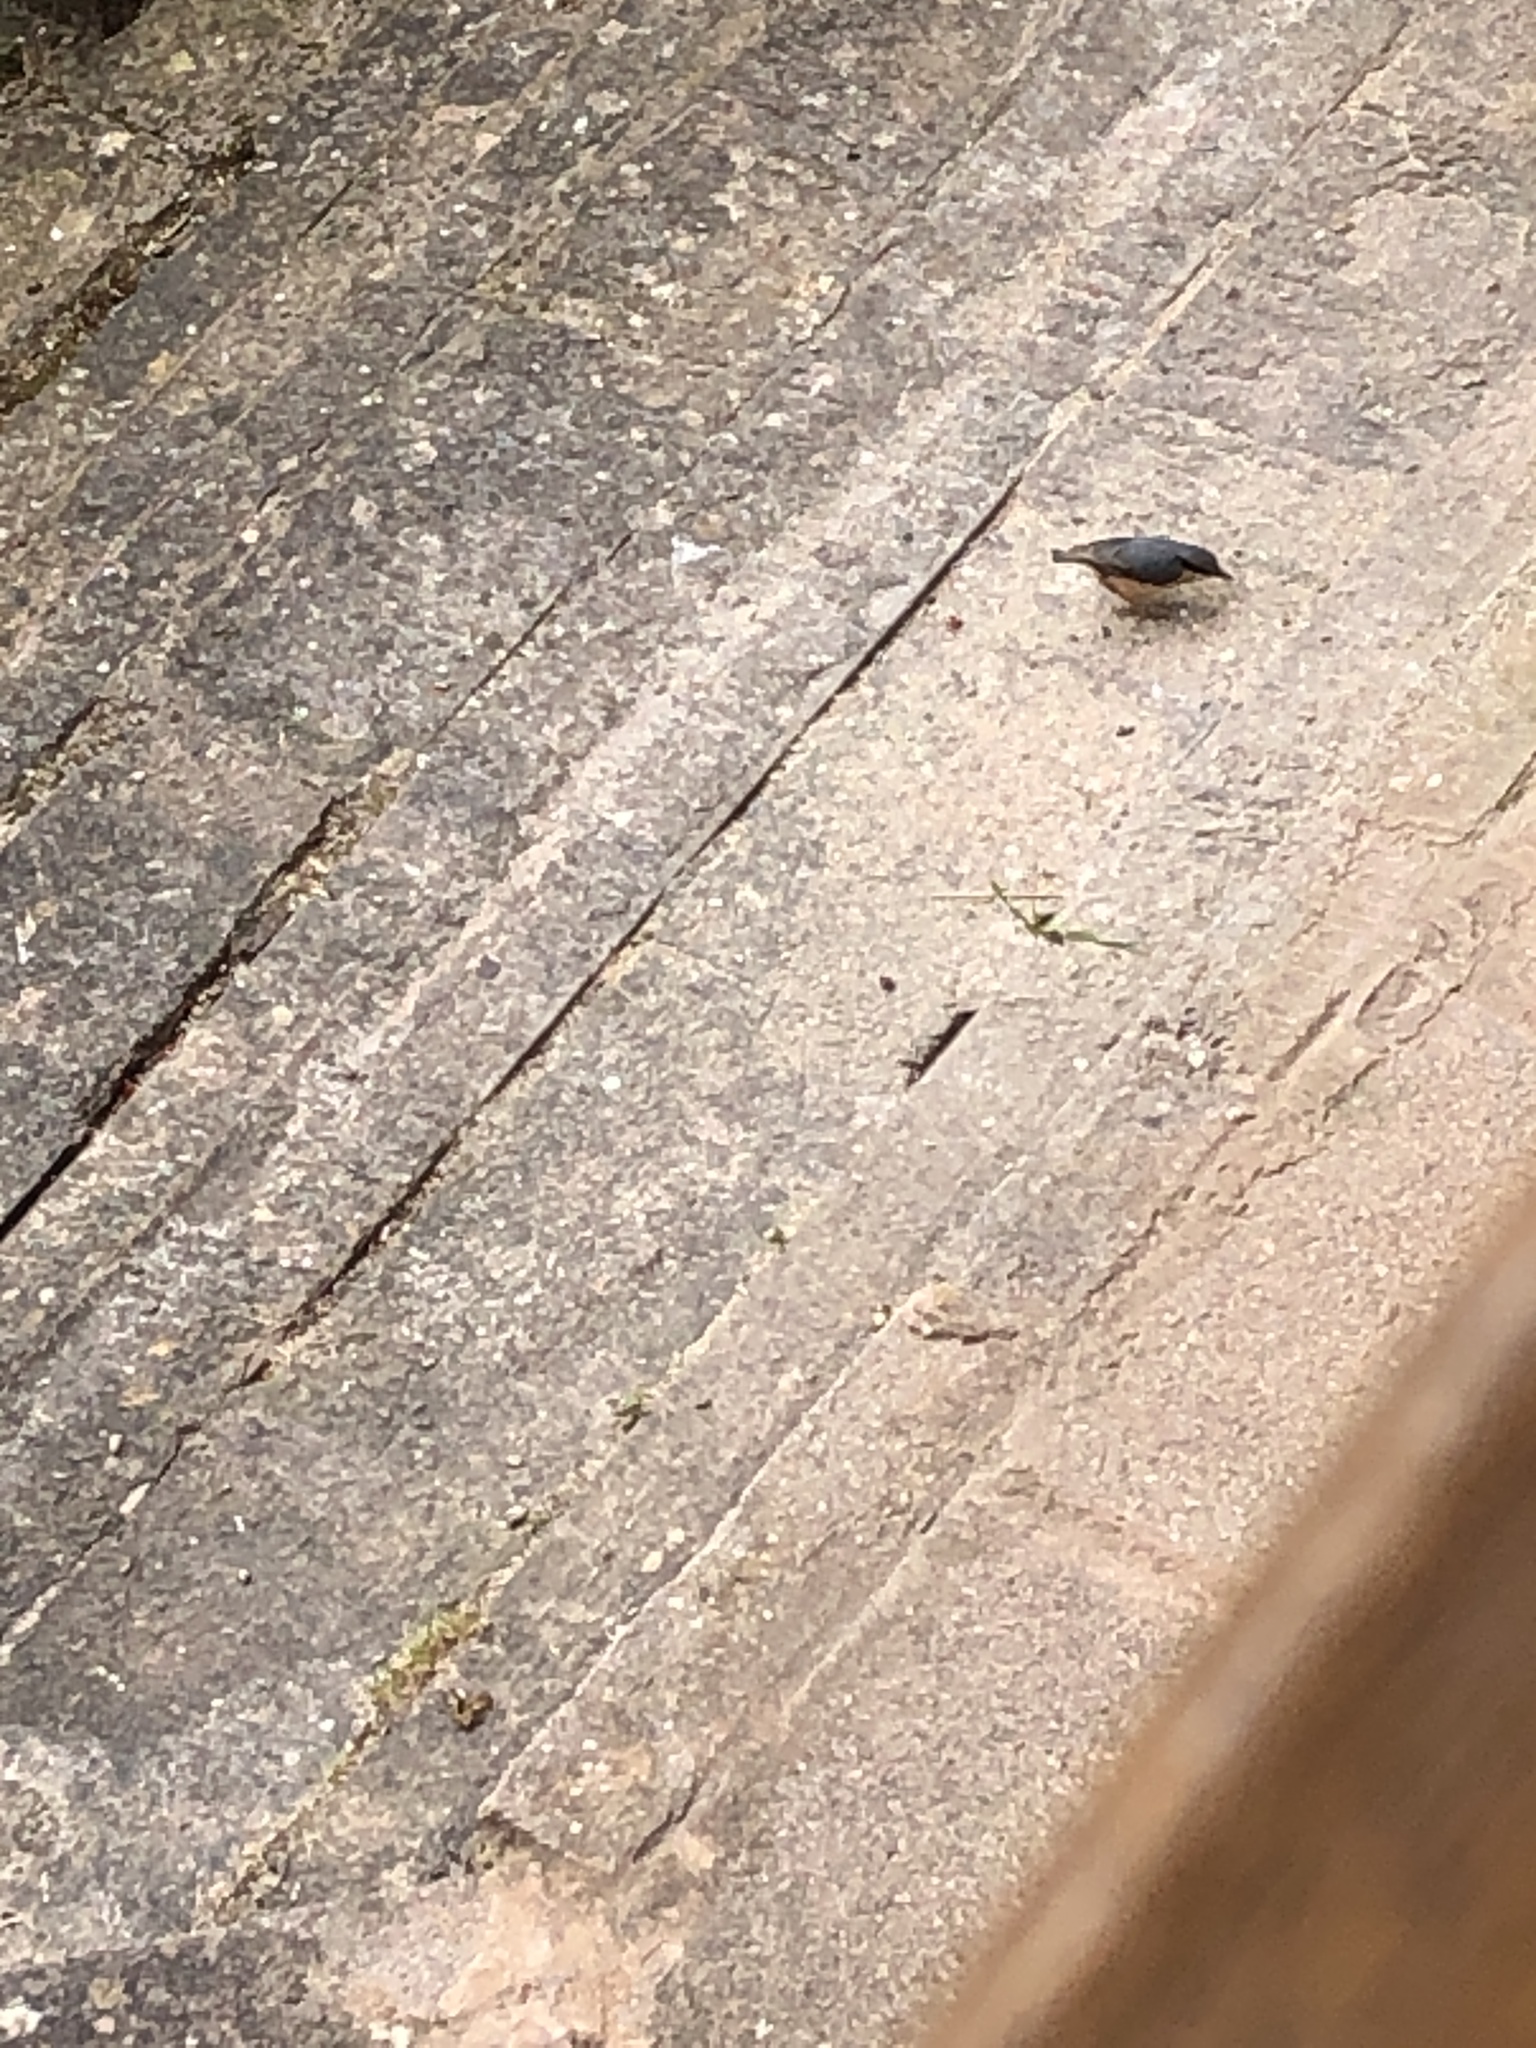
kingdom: Animalia
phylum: Chordata
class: Aves
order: Passeriformes
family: Sittidae
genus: Sitta
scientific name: Sitta europaea
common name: Eurasian nuthatch
